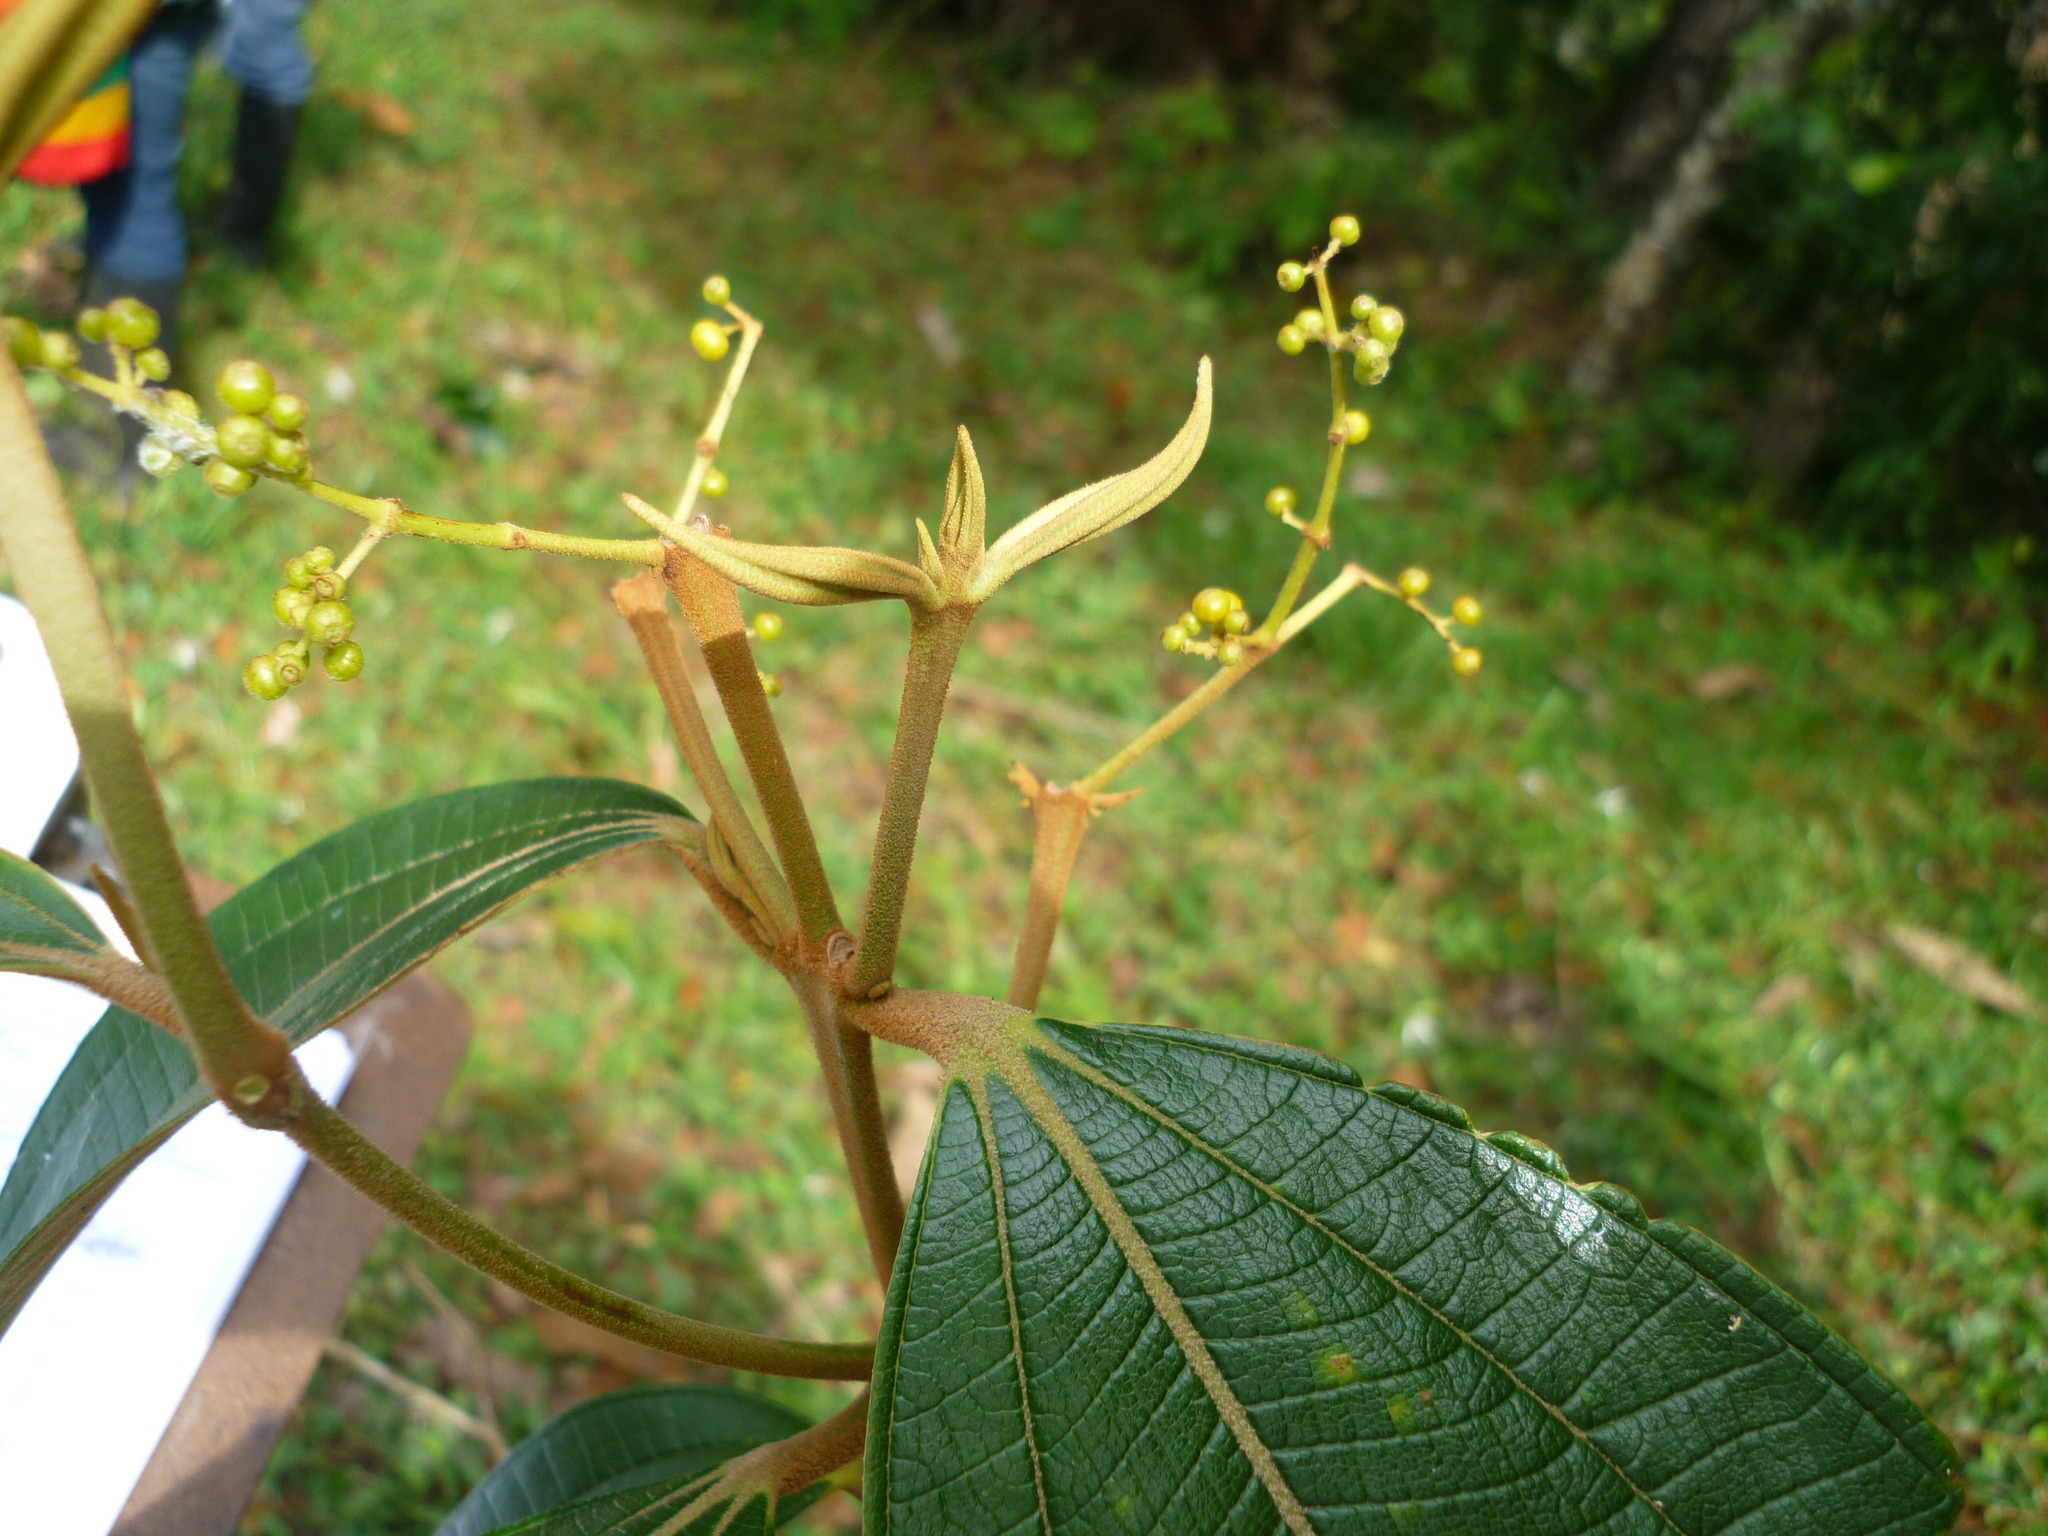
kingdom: Plantae
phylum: Tracheophyta
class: Magnoliopsida
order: Myrtales
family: Melastomataceae
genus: Miconia
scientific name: Miconia dolichorrhyncha
